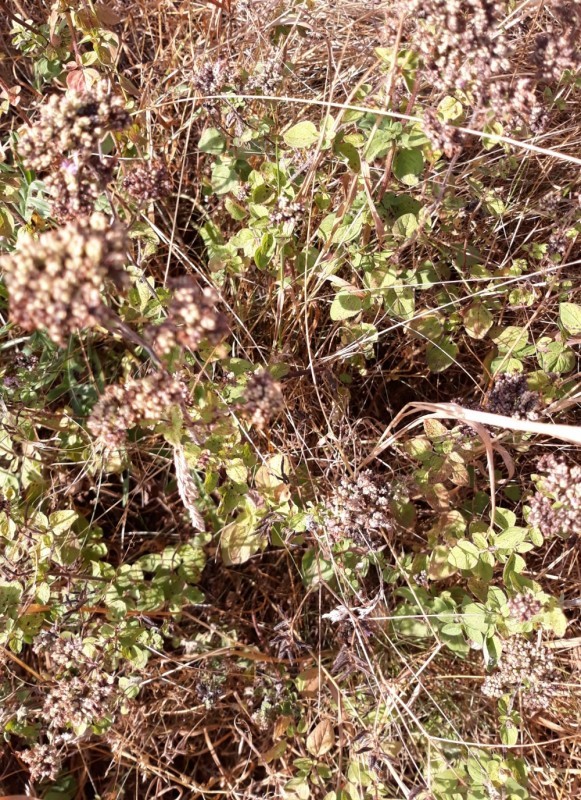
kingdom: Plantae
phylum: Tracheophyta
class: Magnoliopsida
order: Lamiales
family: Lamiaceae
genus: Origanum
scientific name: Origanum vulgare
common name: Wild marjoram
